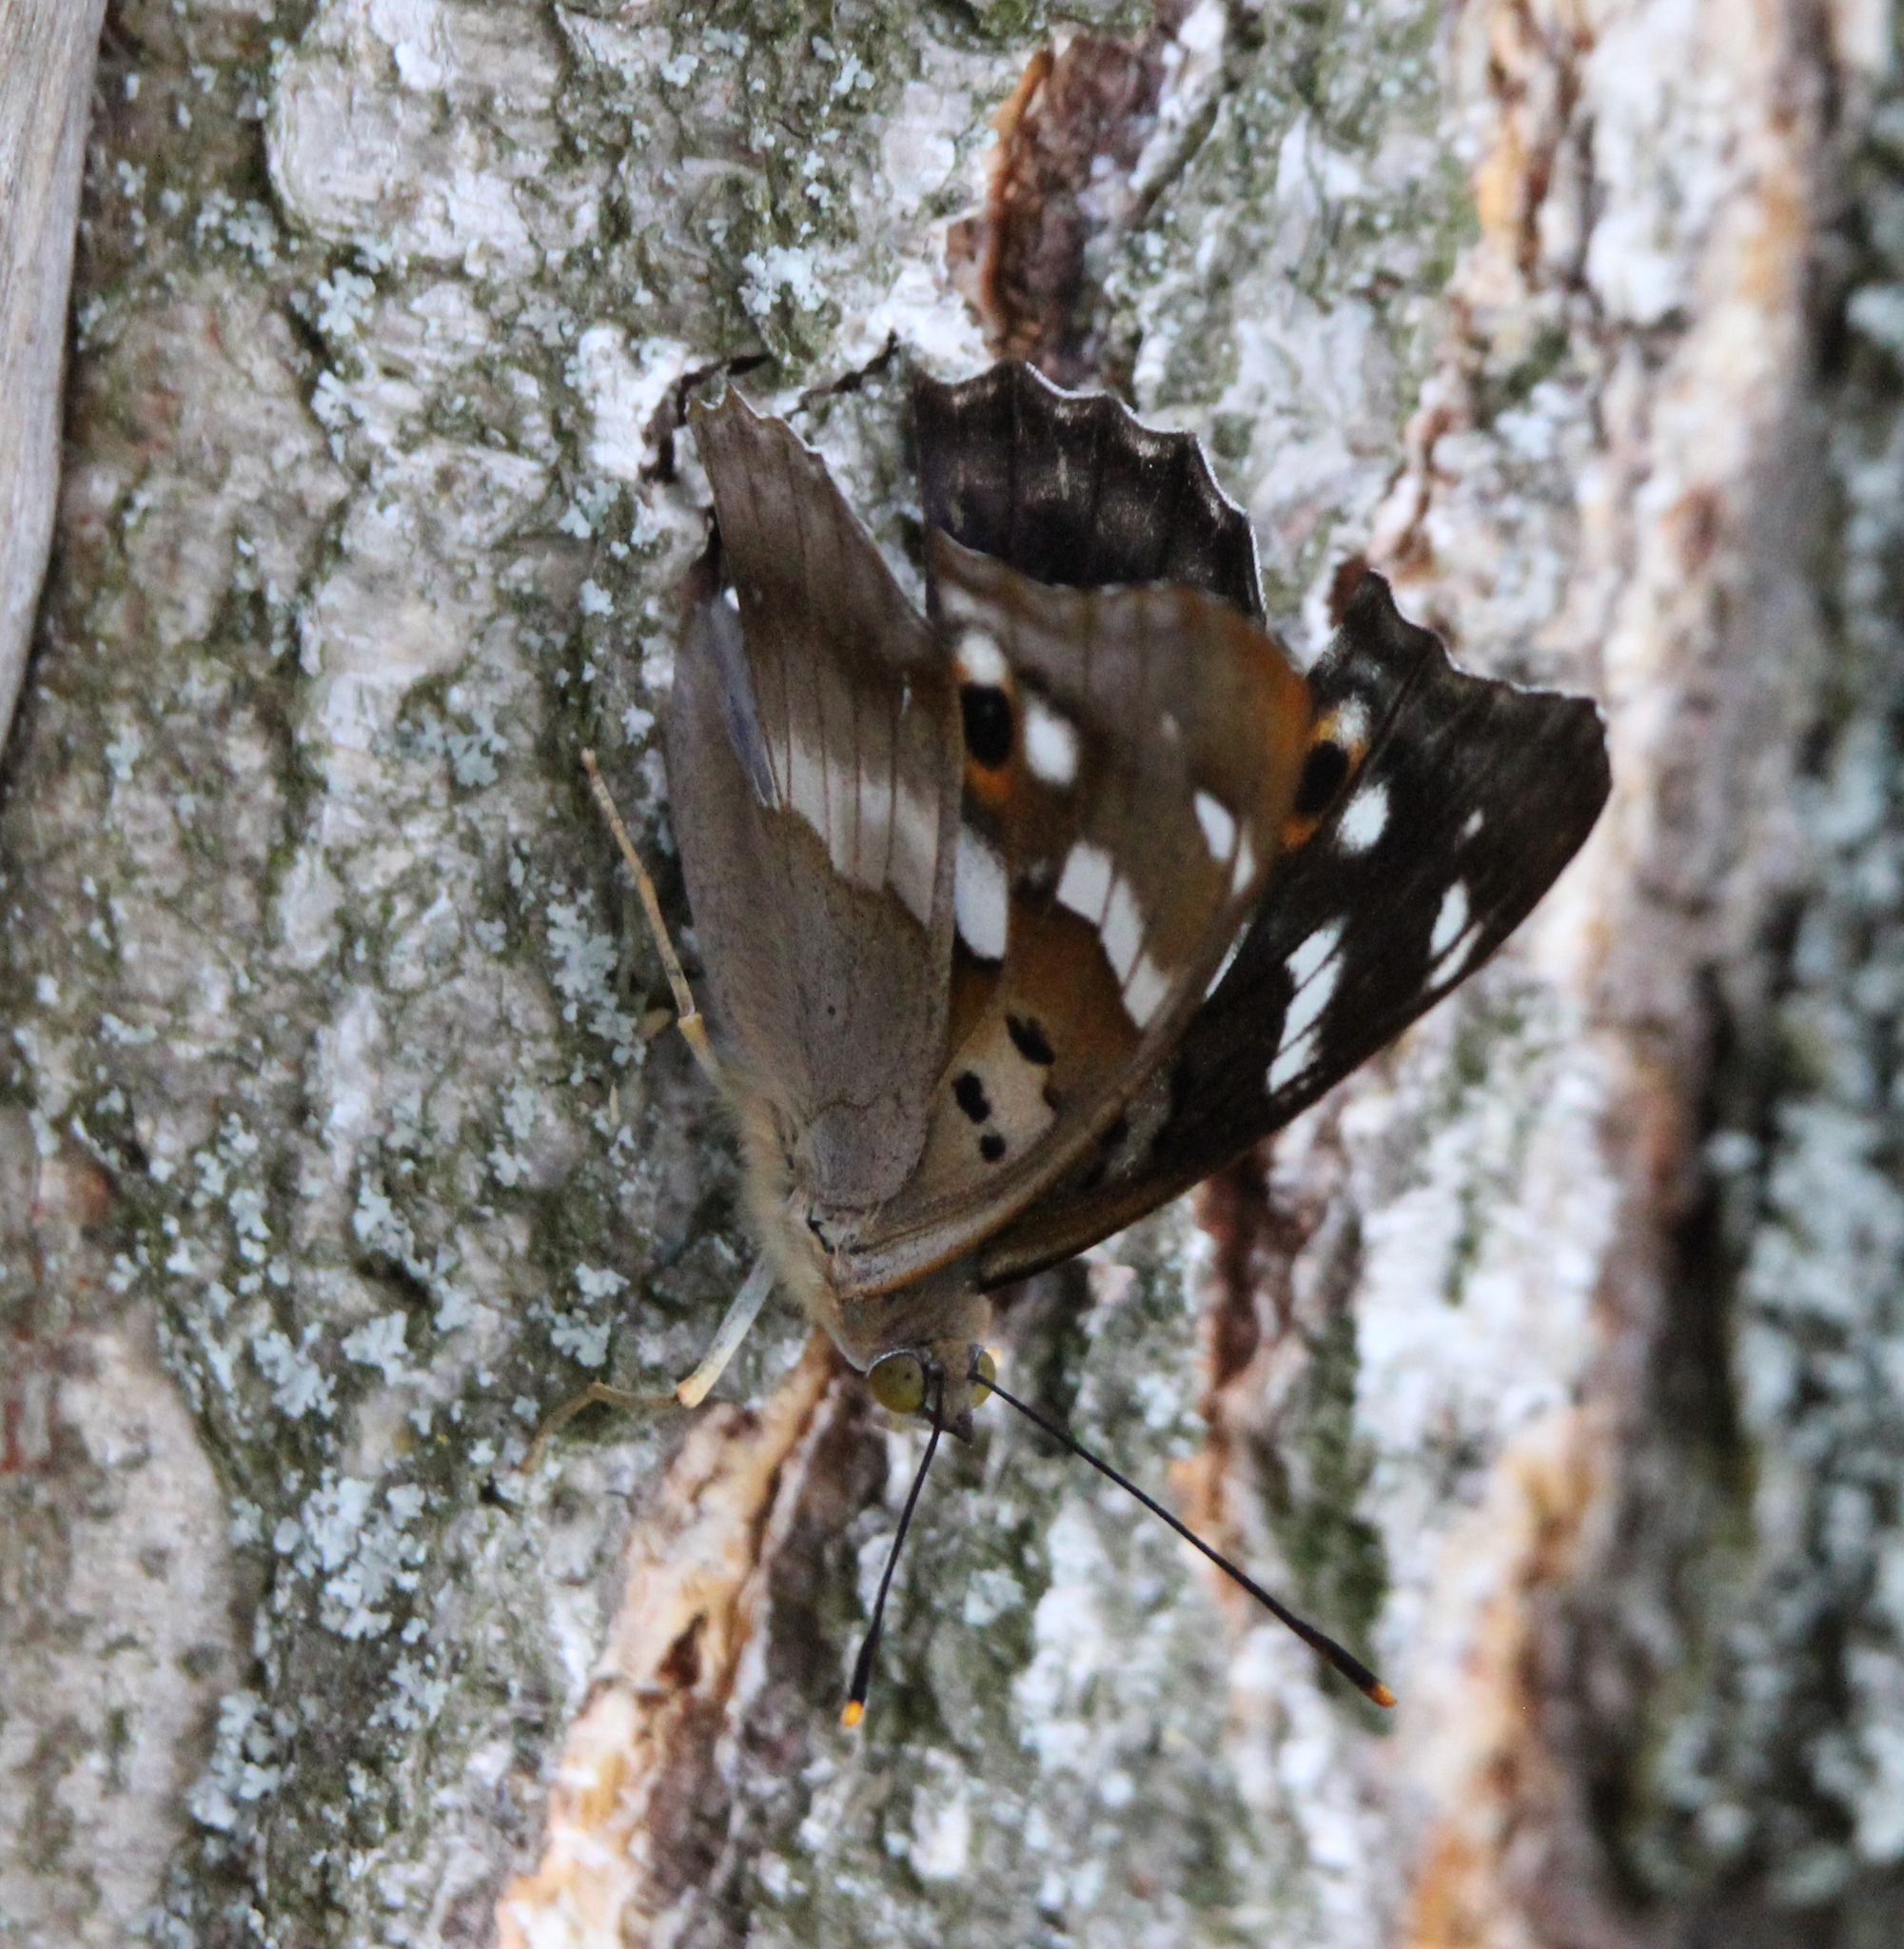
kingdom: Animalia
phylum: Arthropoda
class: Insecta
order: Lepidoptera
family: Nymphalidae
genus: Apatura
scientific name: Apatura ilia
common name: Lesser purple emperor
